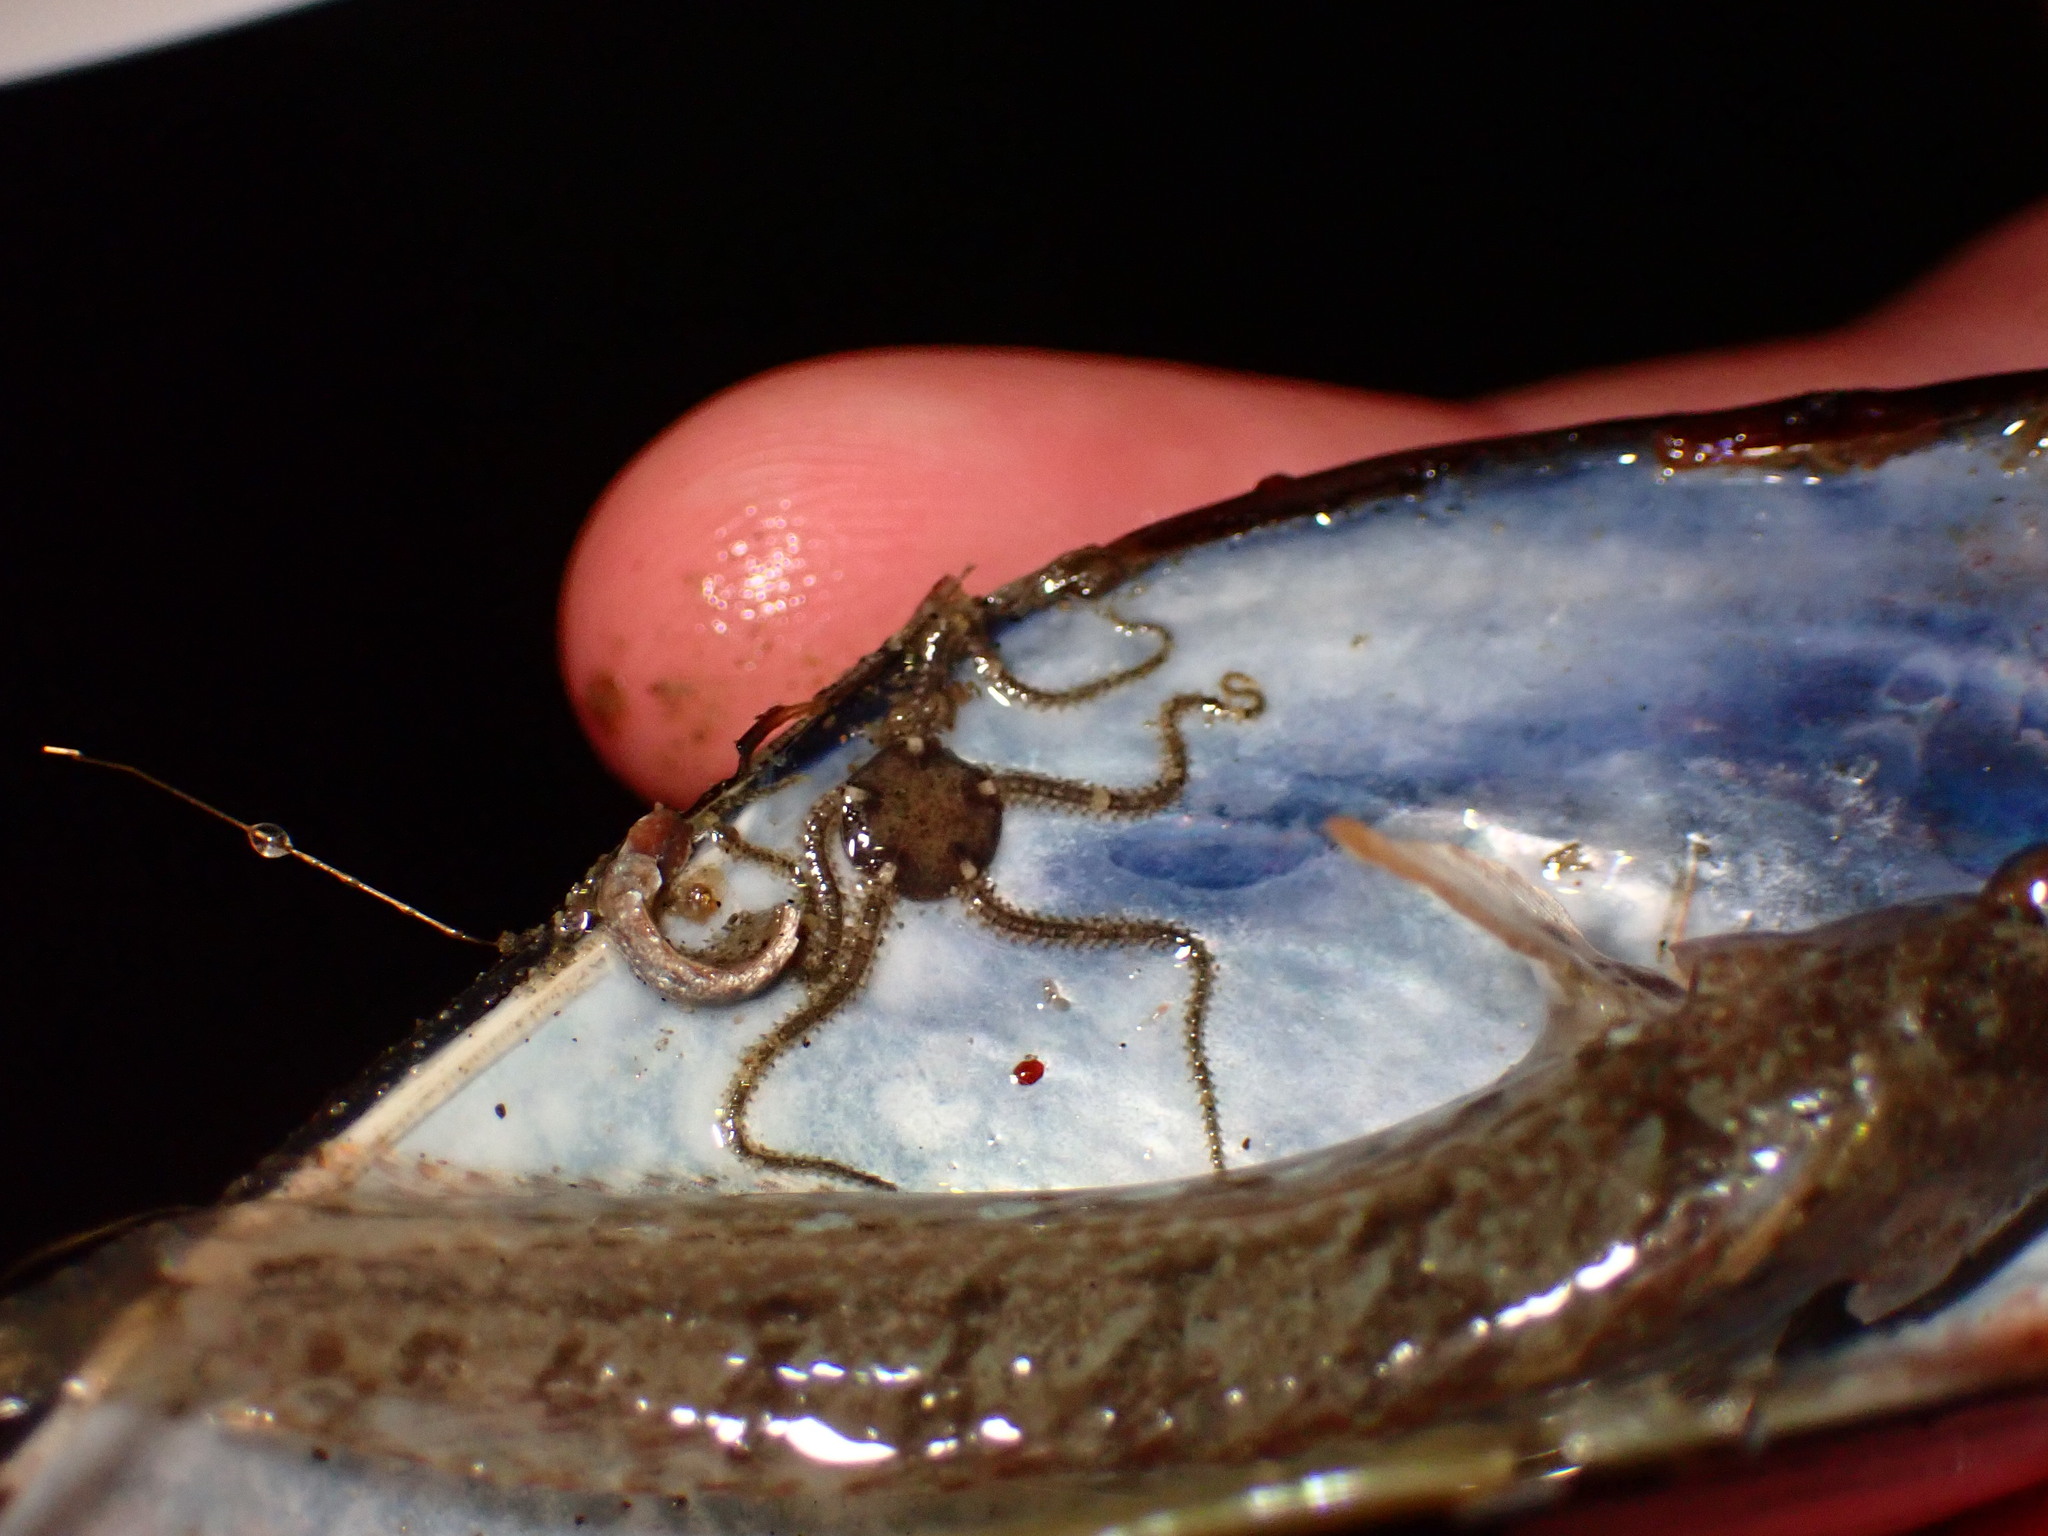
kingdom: Animalia
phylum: Echinodermata
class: Ophiuroidea
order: Amphilepidida
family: Amphiuridae
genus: Amphipholis
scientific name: Amphipholis squamata
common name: Brooding snake star
